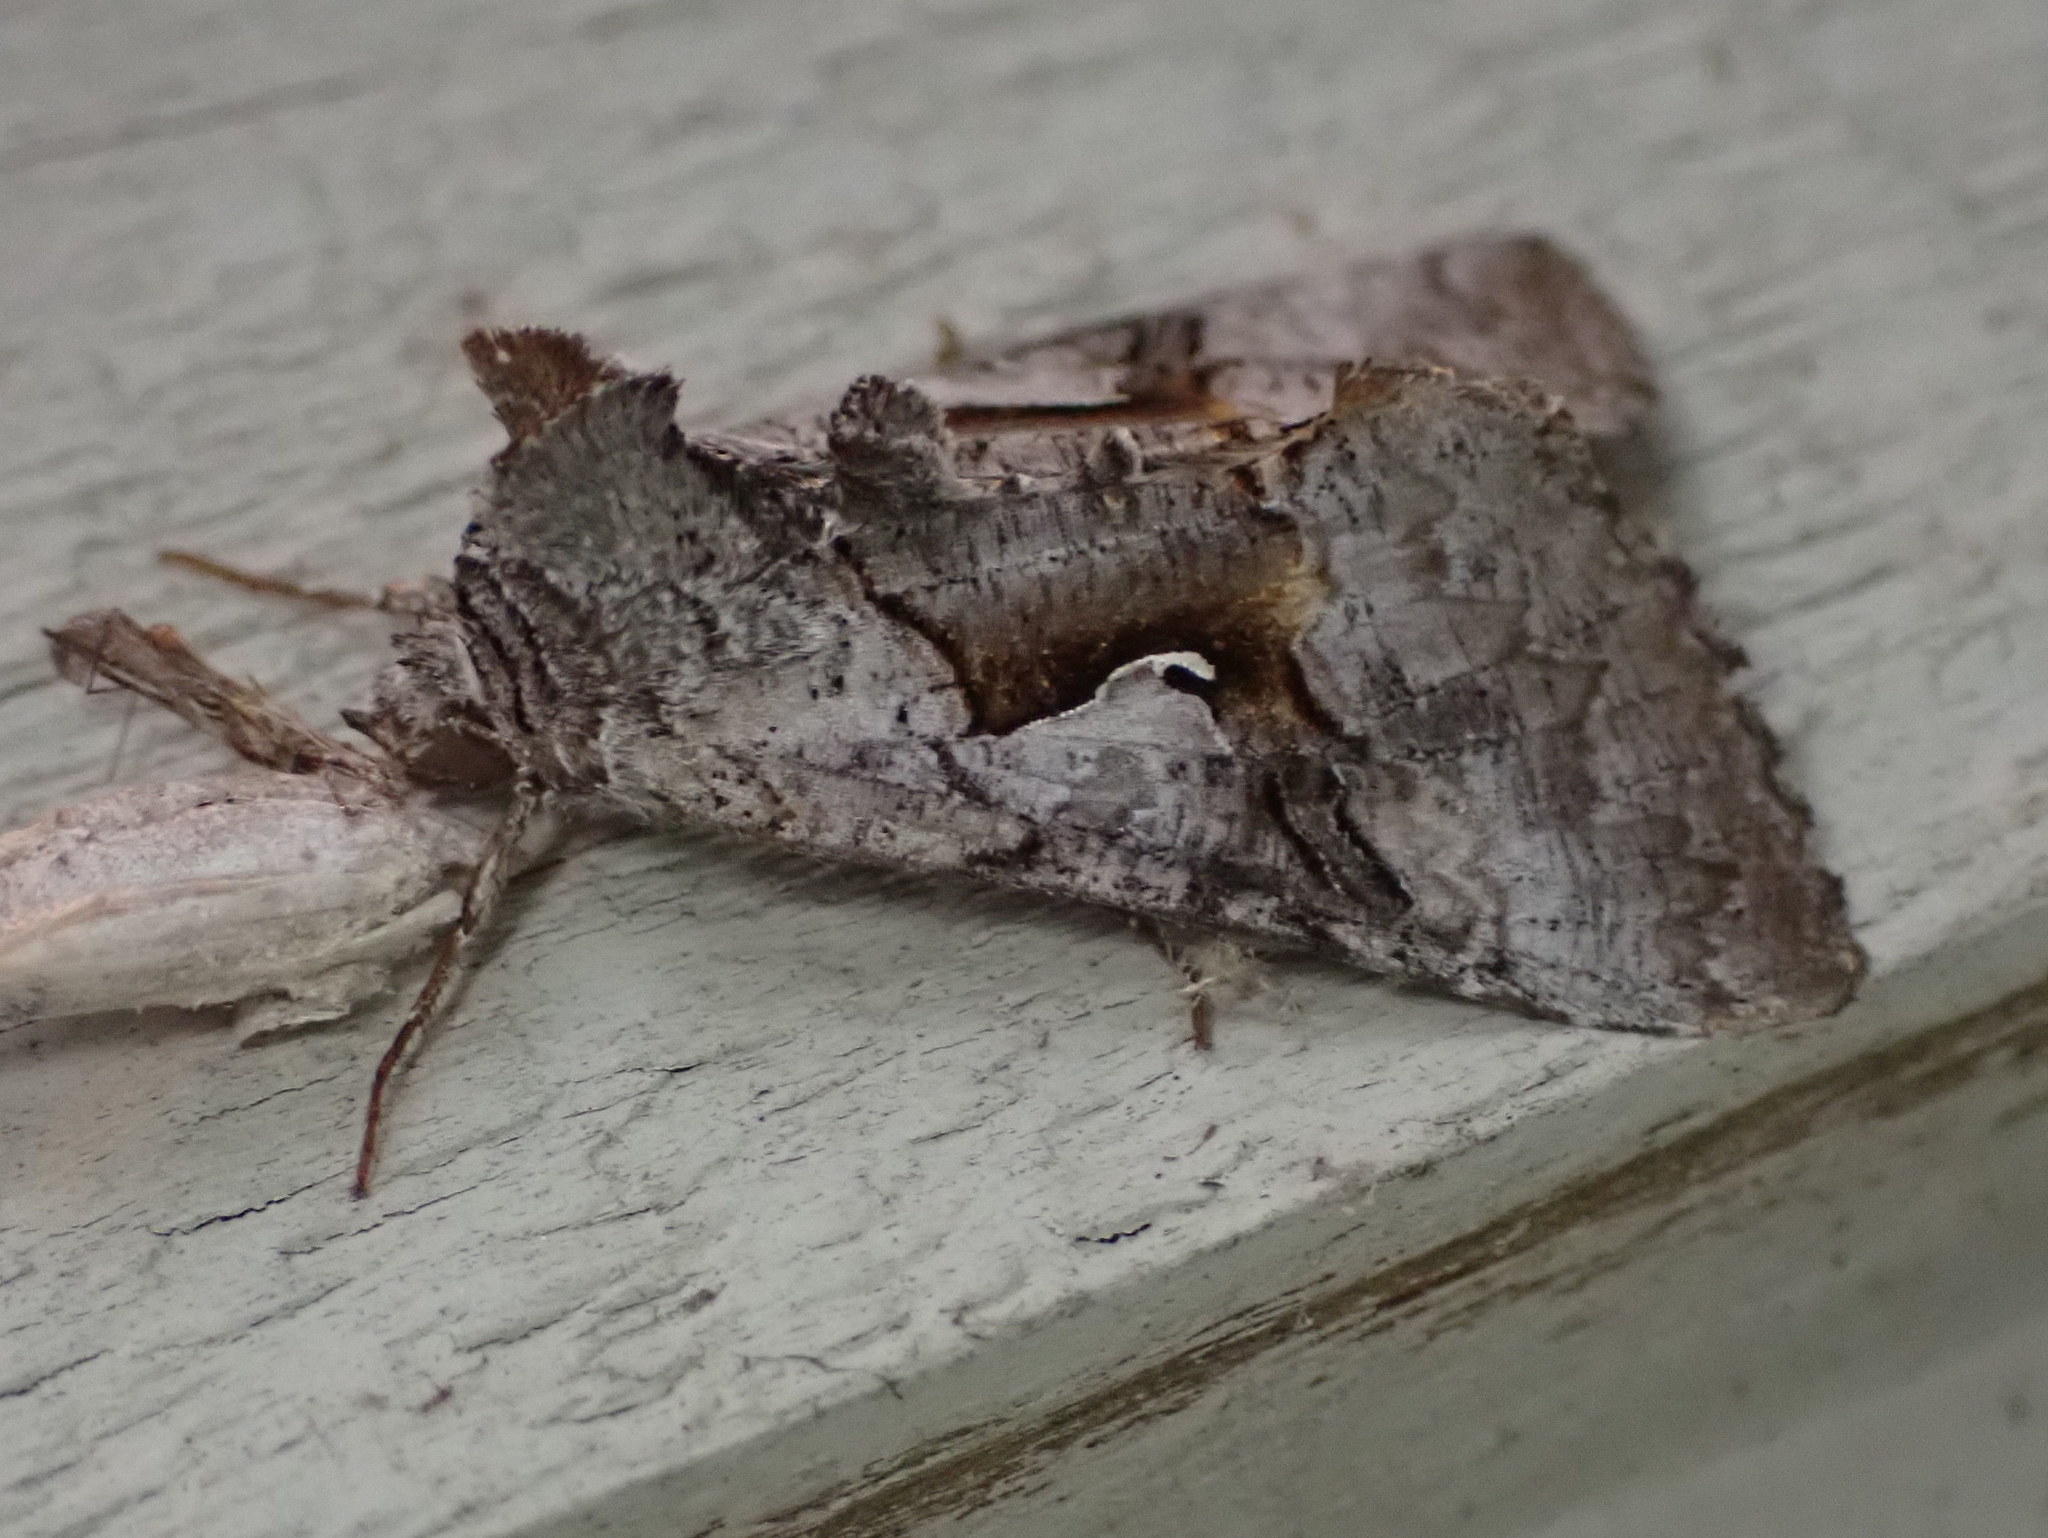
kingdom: Animalia
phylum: Arthropoda
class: Insecta
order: Lepidoptera
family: Noctuidae
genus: Syngrapha
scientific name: Syngrapha epigaea
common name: Epigaea looper moth
